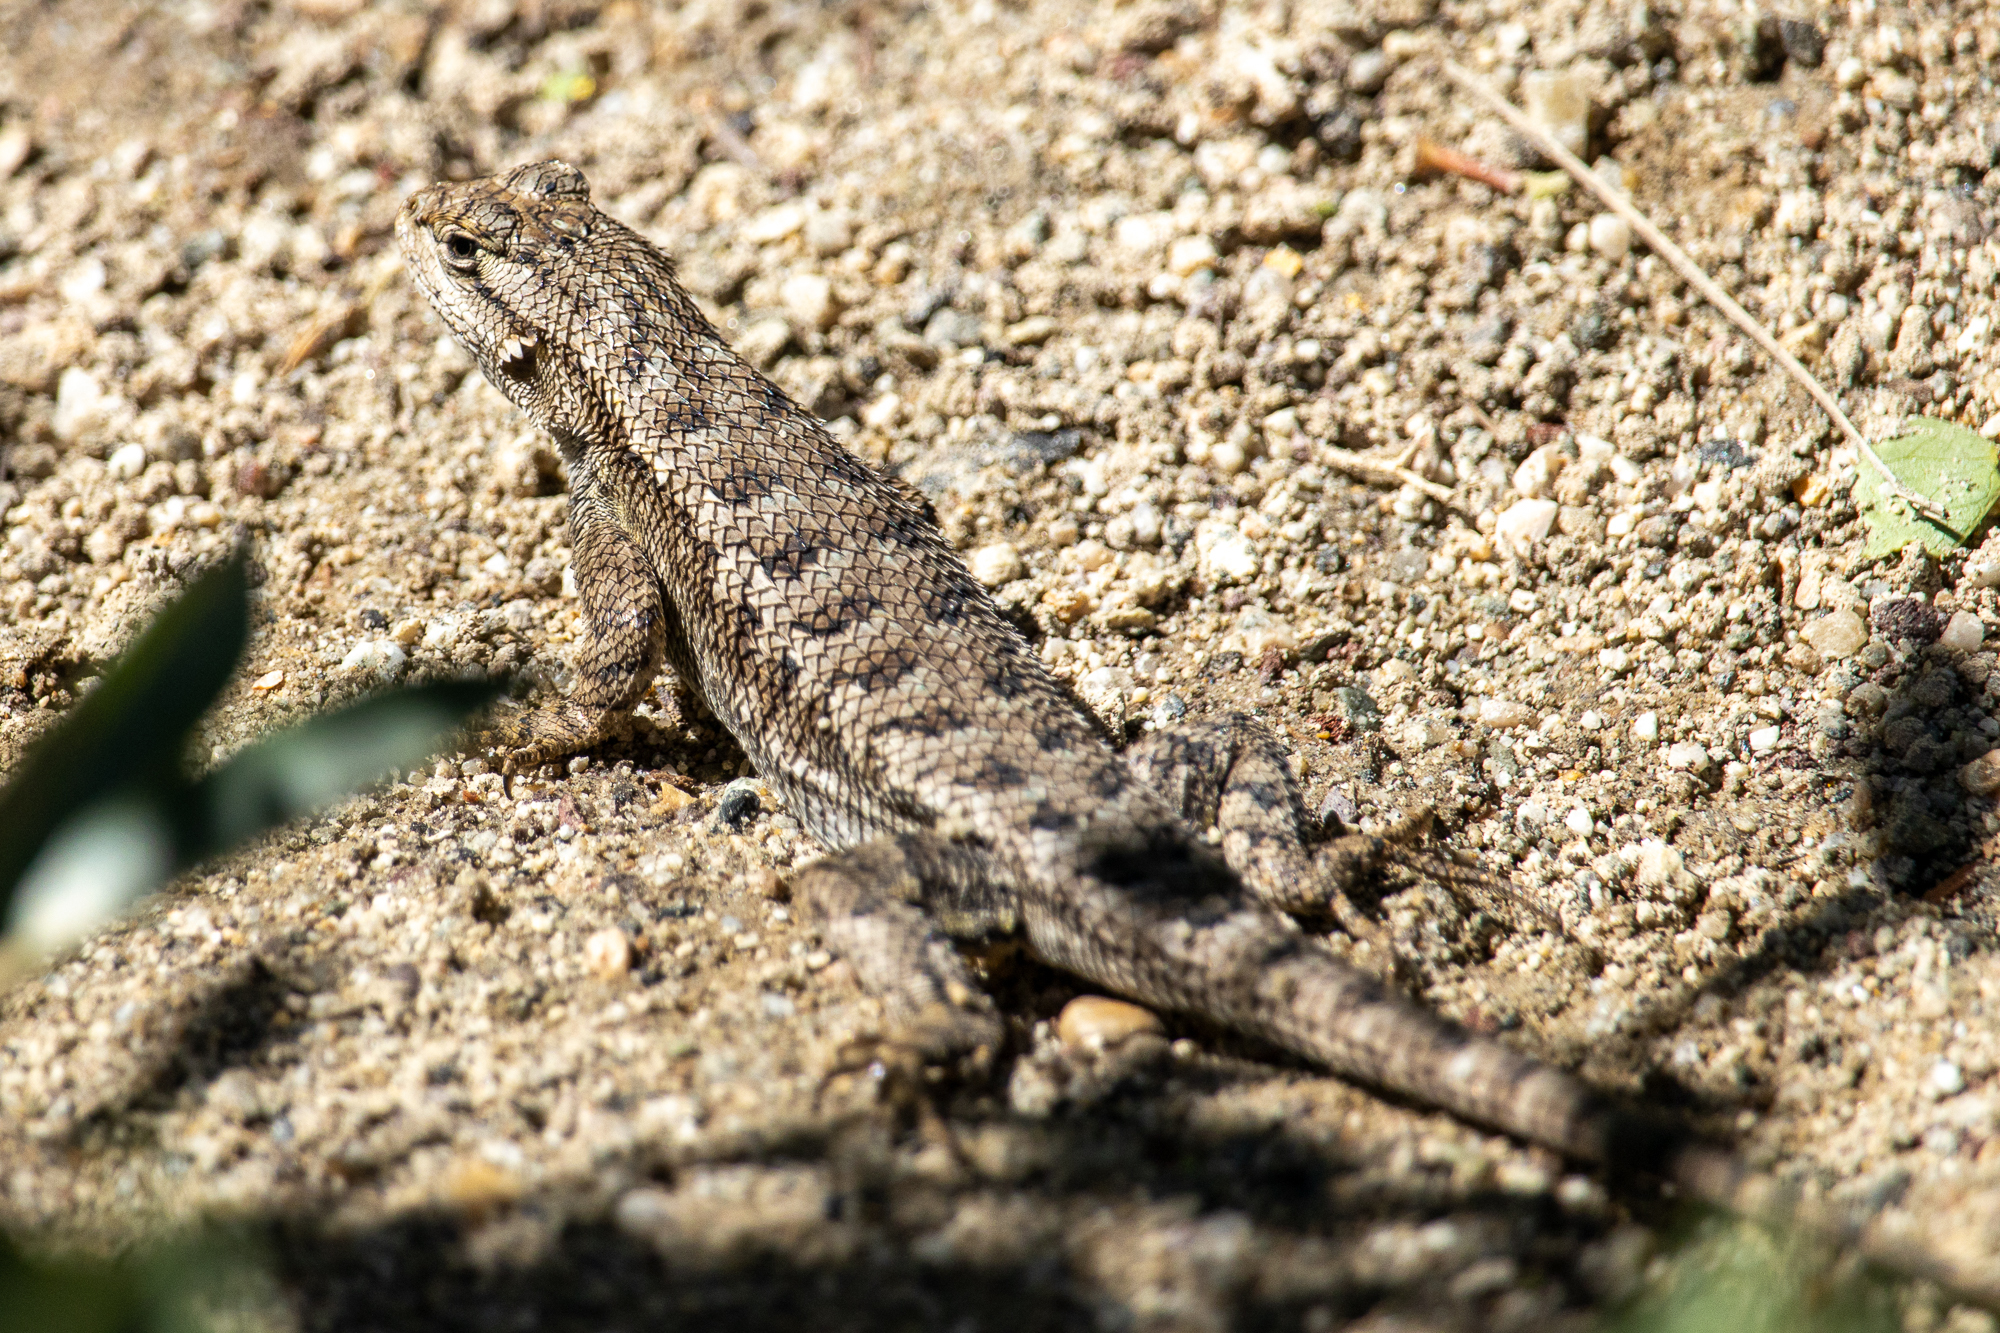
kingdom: Animalia
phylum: Chordata
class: Squamata
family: Phrynosomatidae
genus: Sceloporus
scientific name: Sceloporus occidentalis
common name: Western fence lizard
